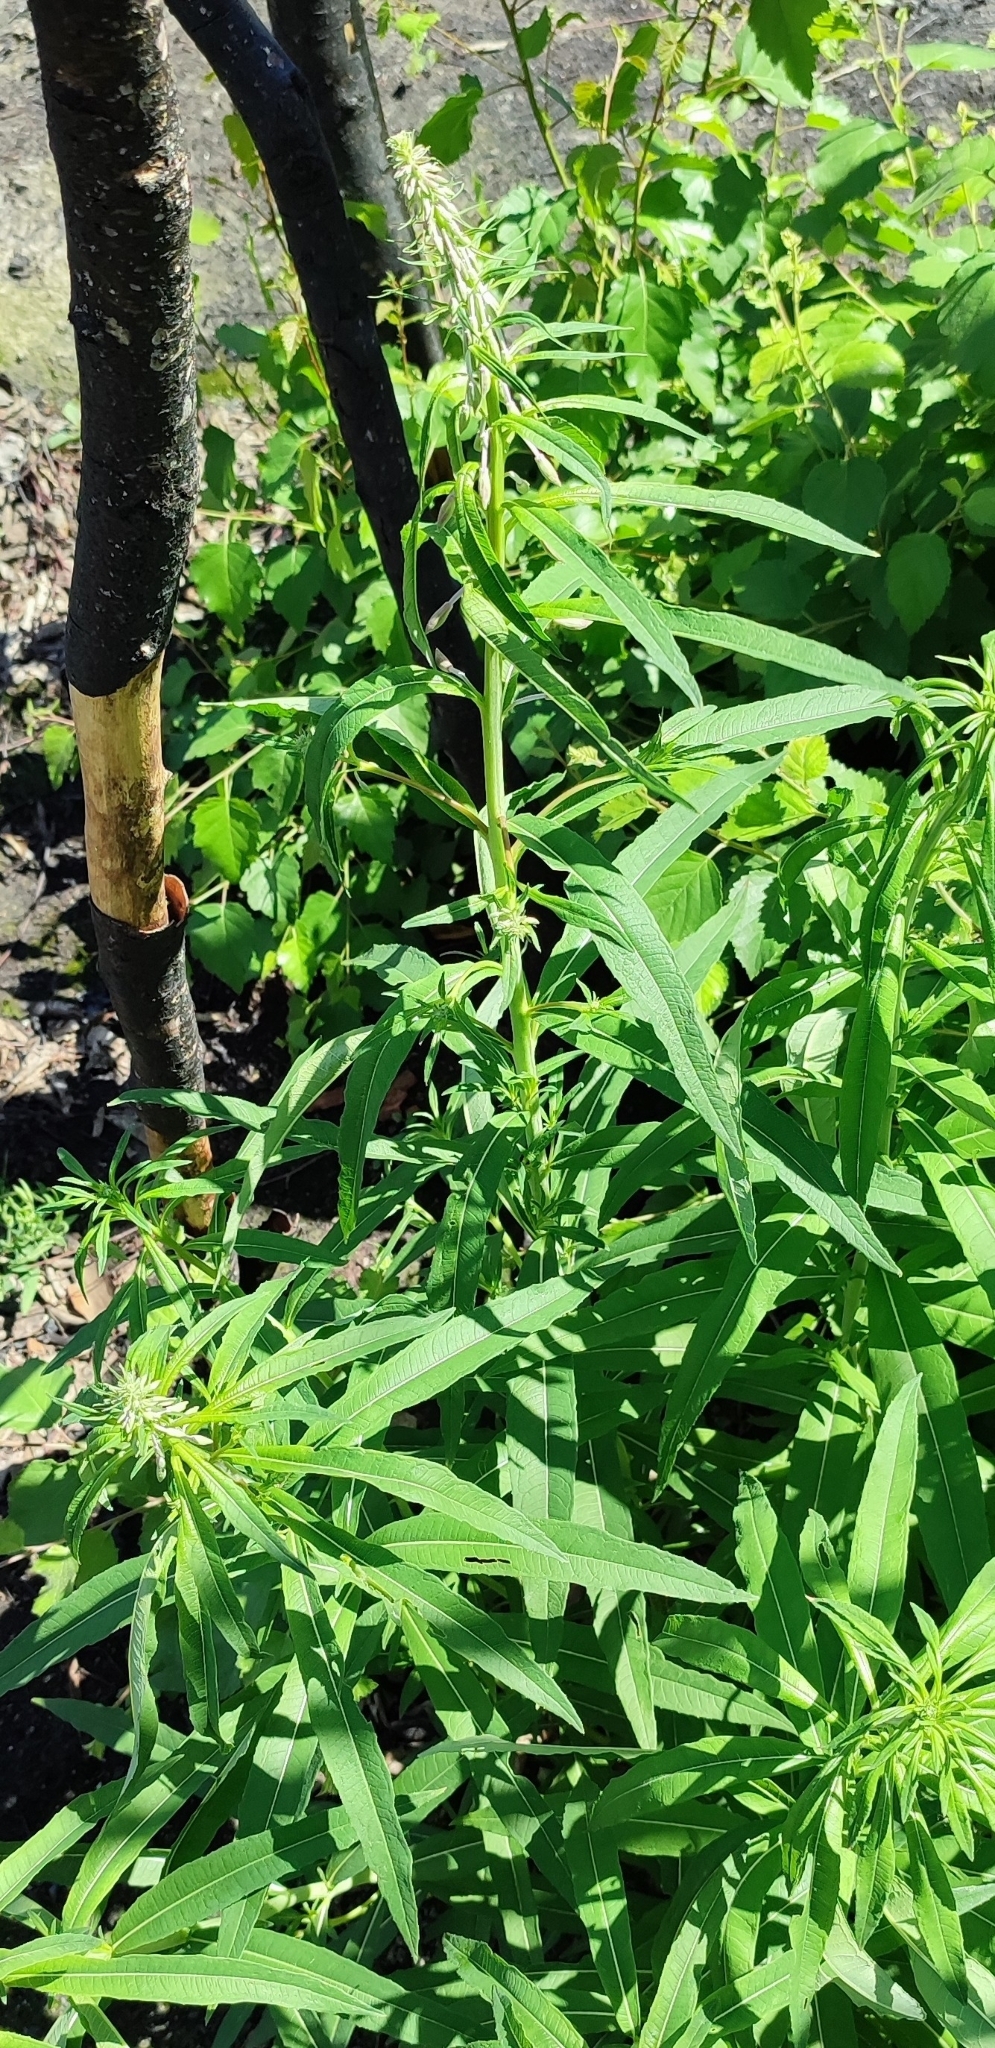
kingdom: Plantae
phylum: Tracheophyta
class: Magnoliopsida
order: Myrtales
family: Onagraceae
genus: Chamaenerion
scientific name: Chamaenerion angustifolium
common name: Fireweed
